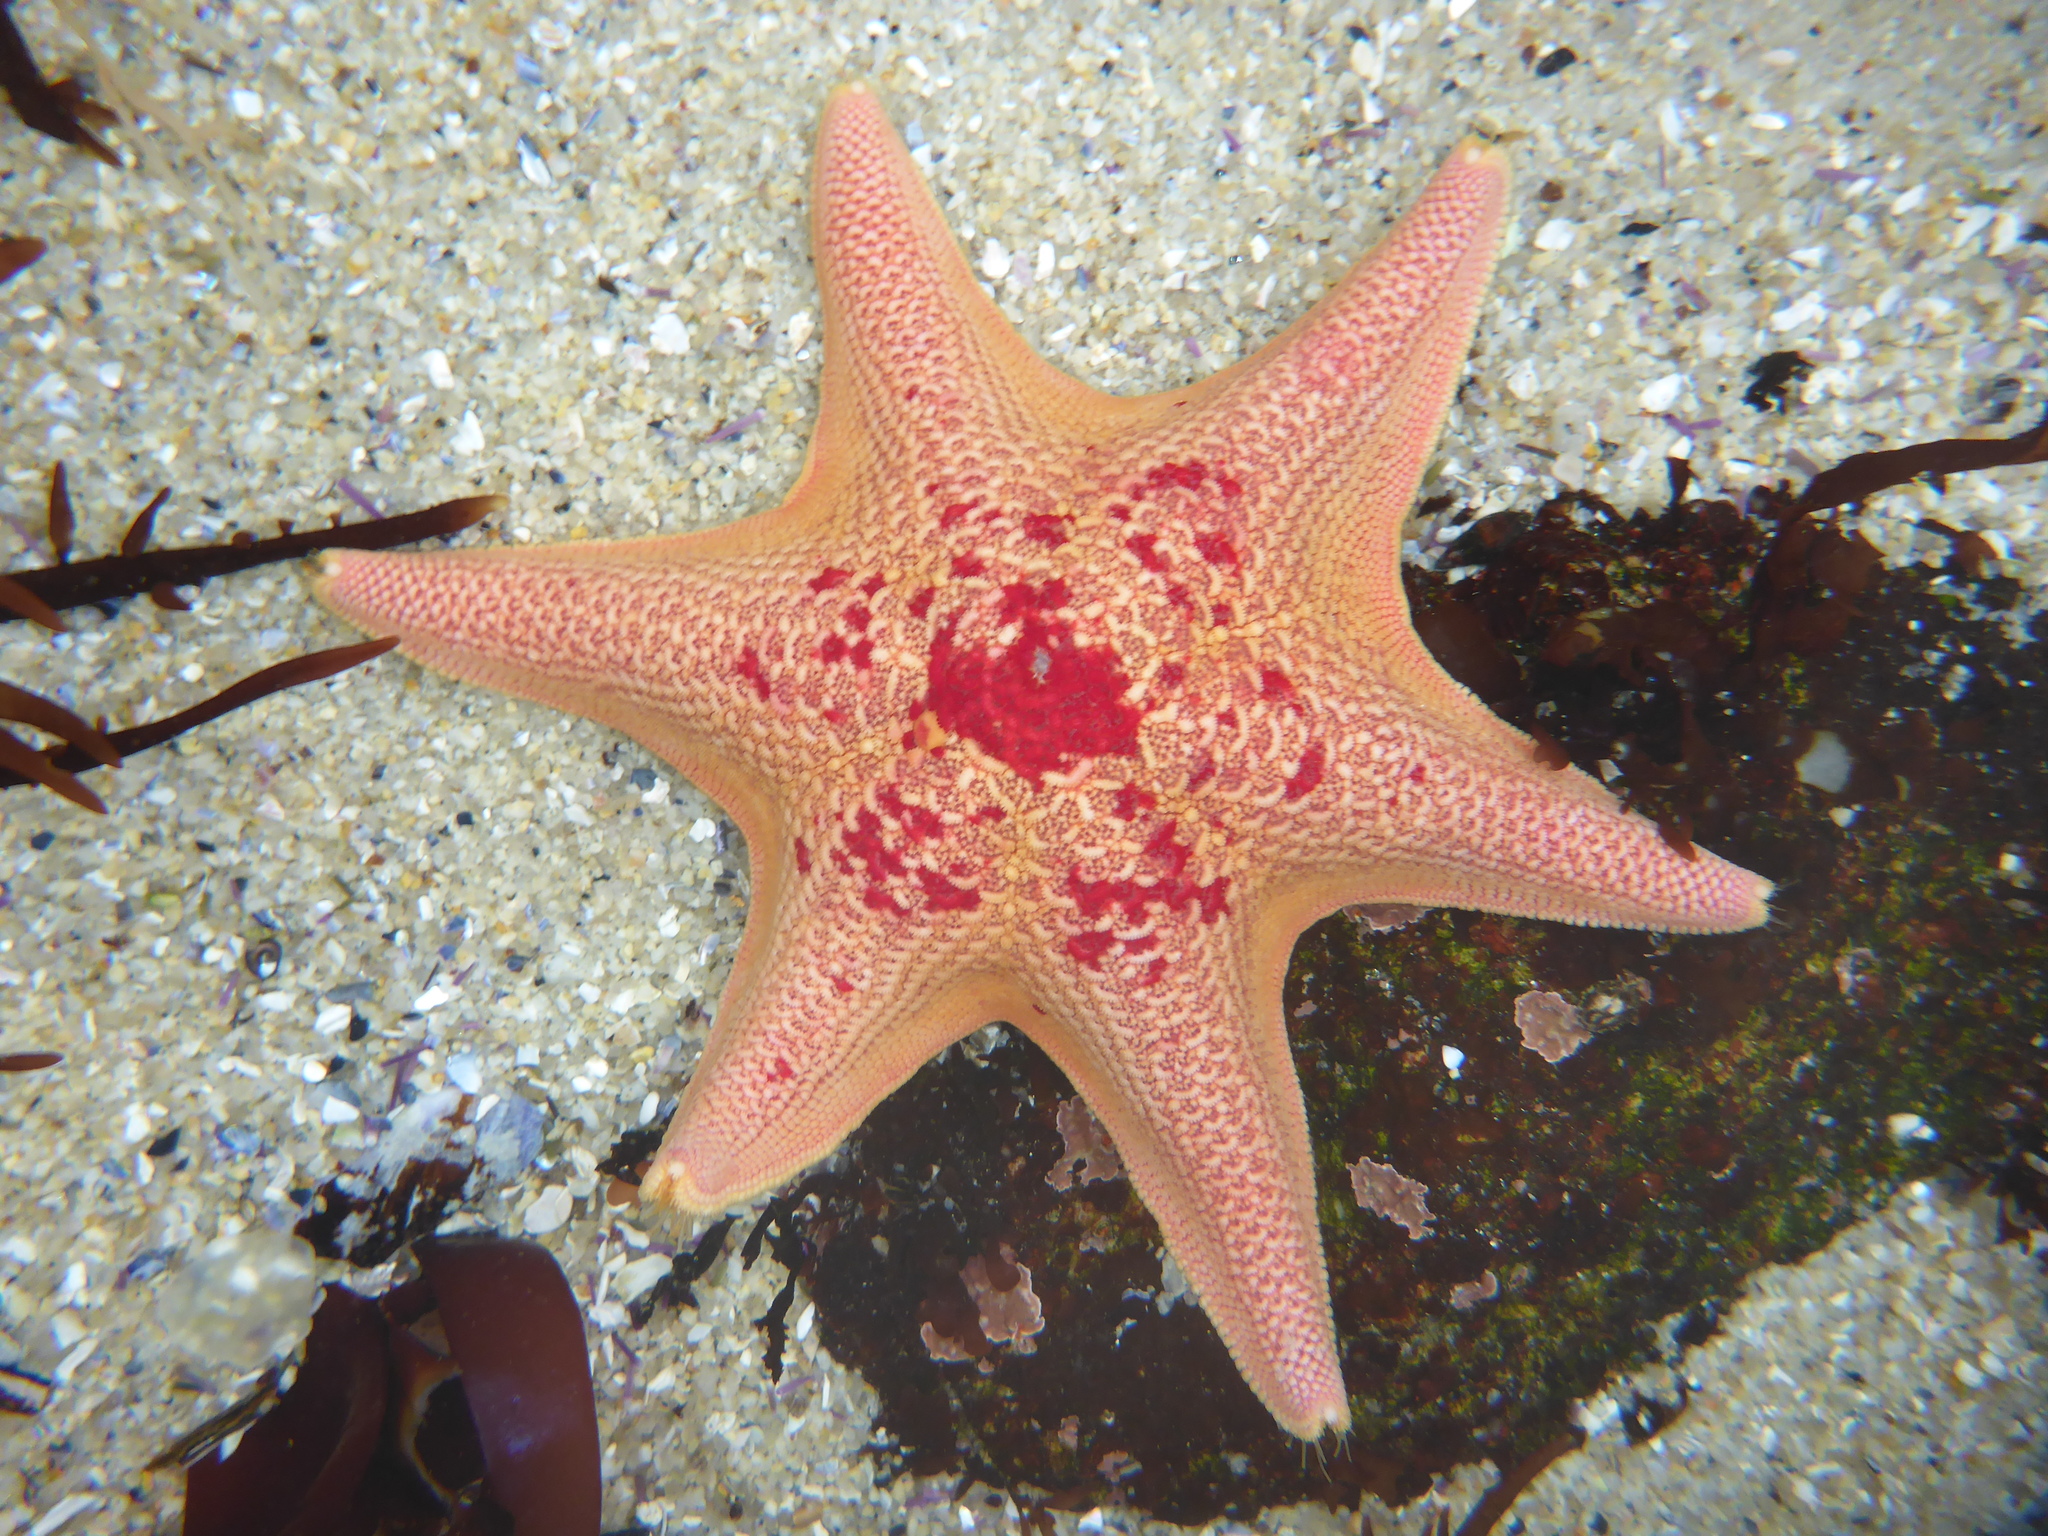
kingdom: Animalia
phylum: Echinodermata
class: Asteroidea
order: Valvatida
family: Asterinidae
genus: Patiria
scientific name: Patiria miniata
